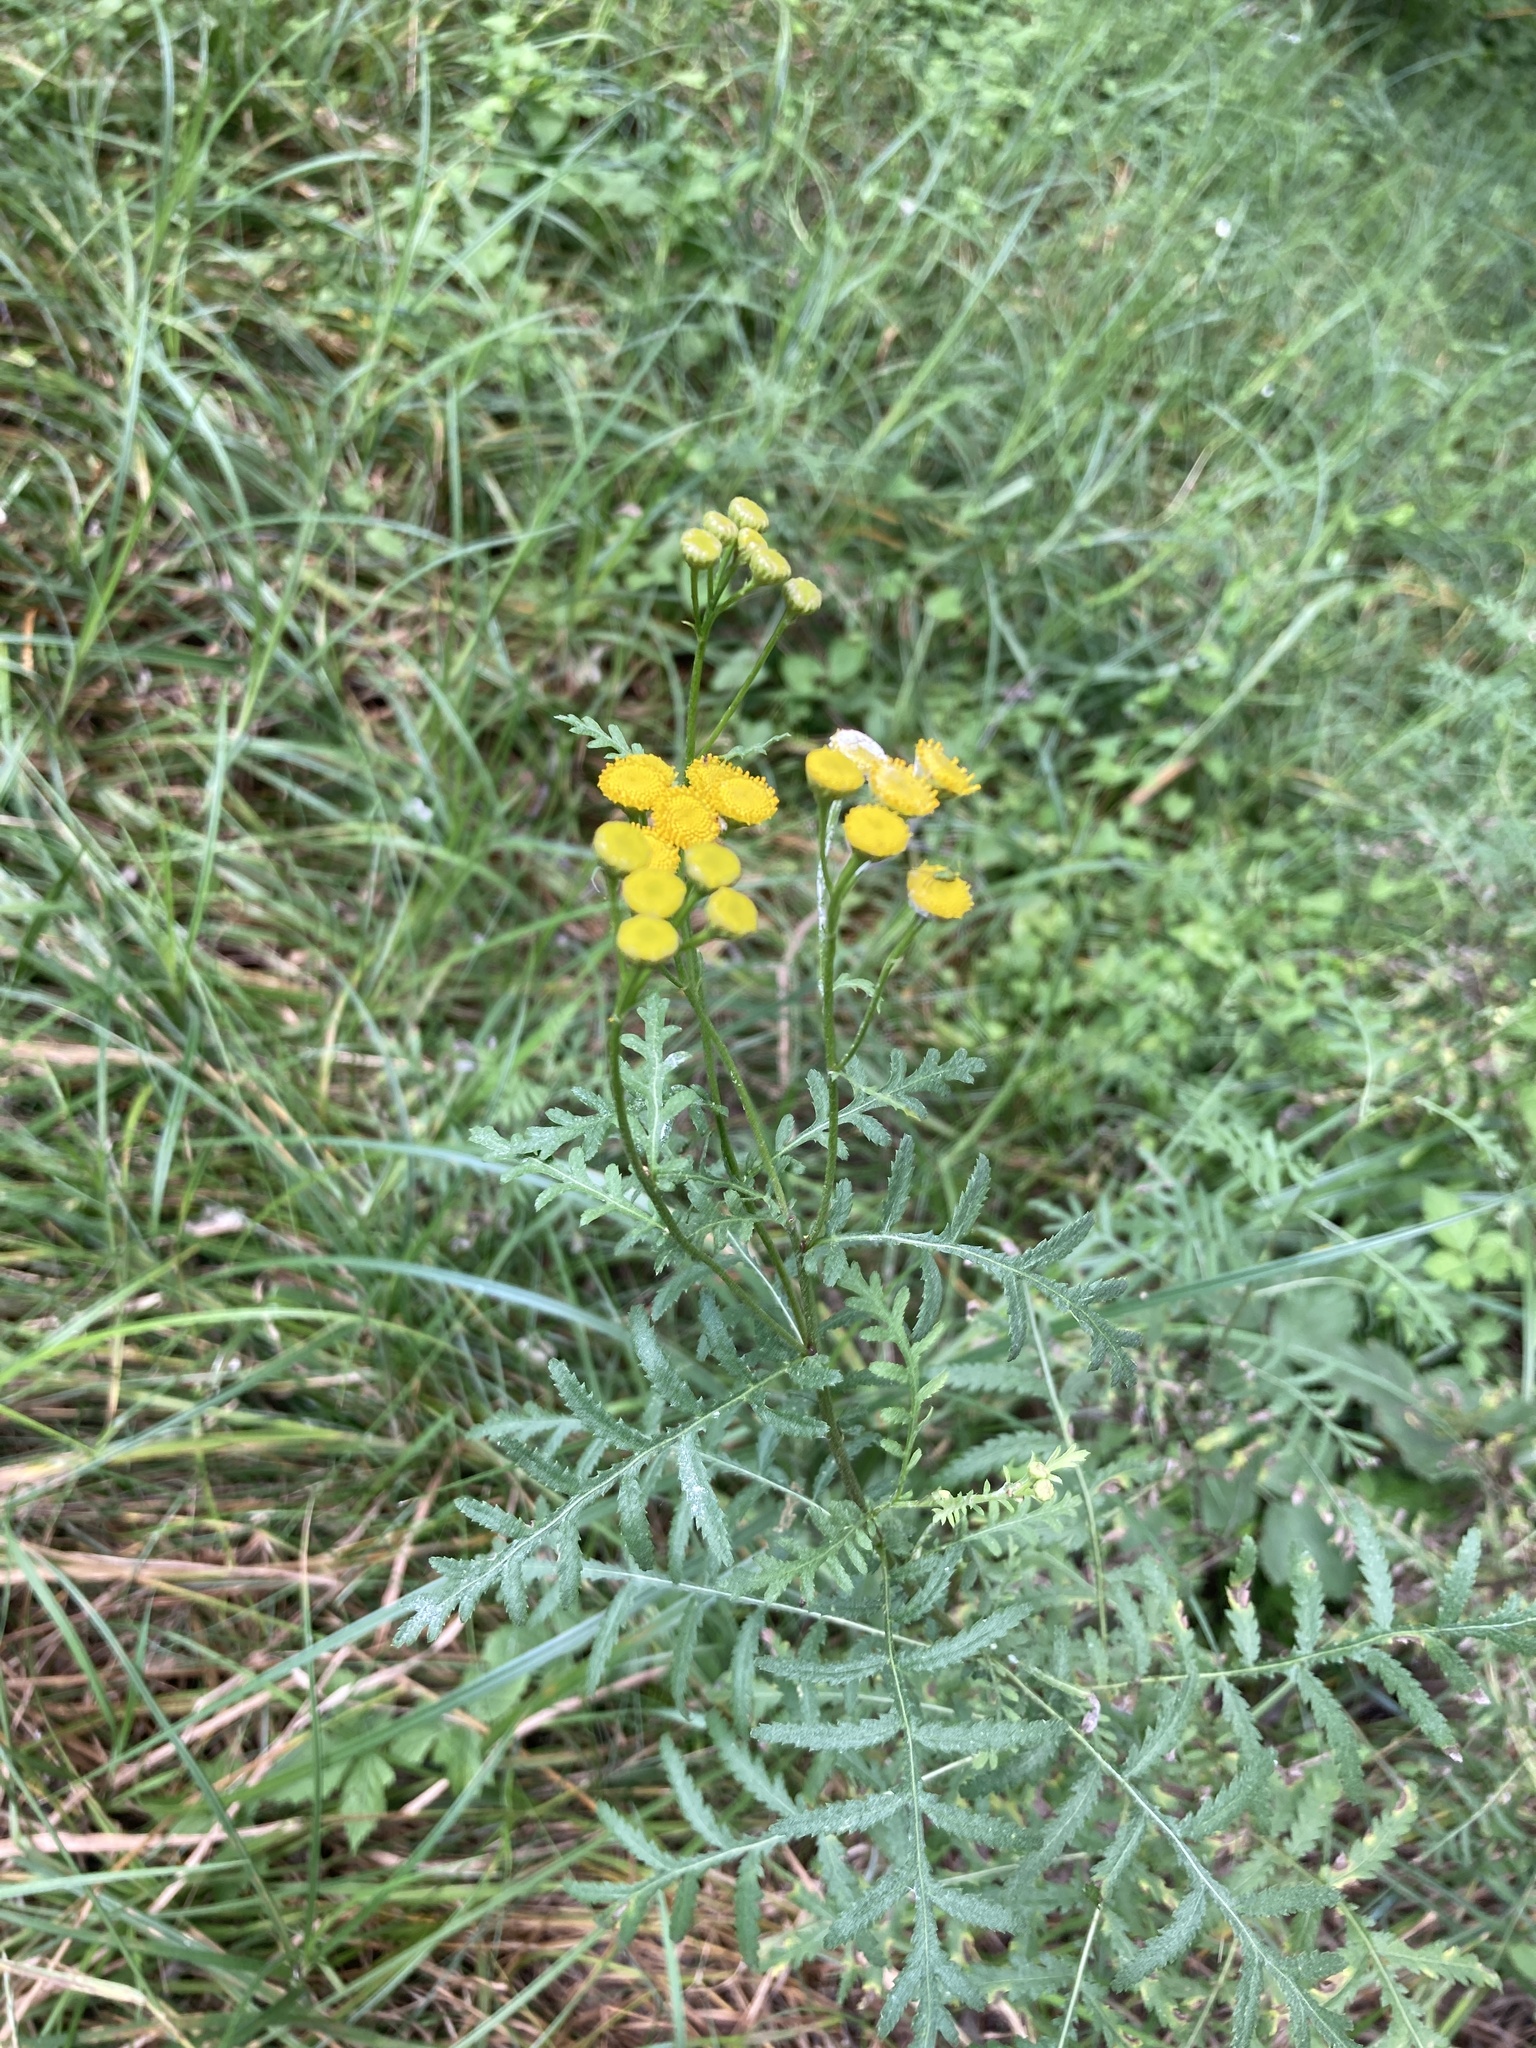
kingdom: Plantae
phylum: Tracheophyta
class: Magnoliopsida
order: Asterales
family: Asteraceae
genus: Tanacetum
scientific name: Tanacetum vulgare
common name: Common tansy
